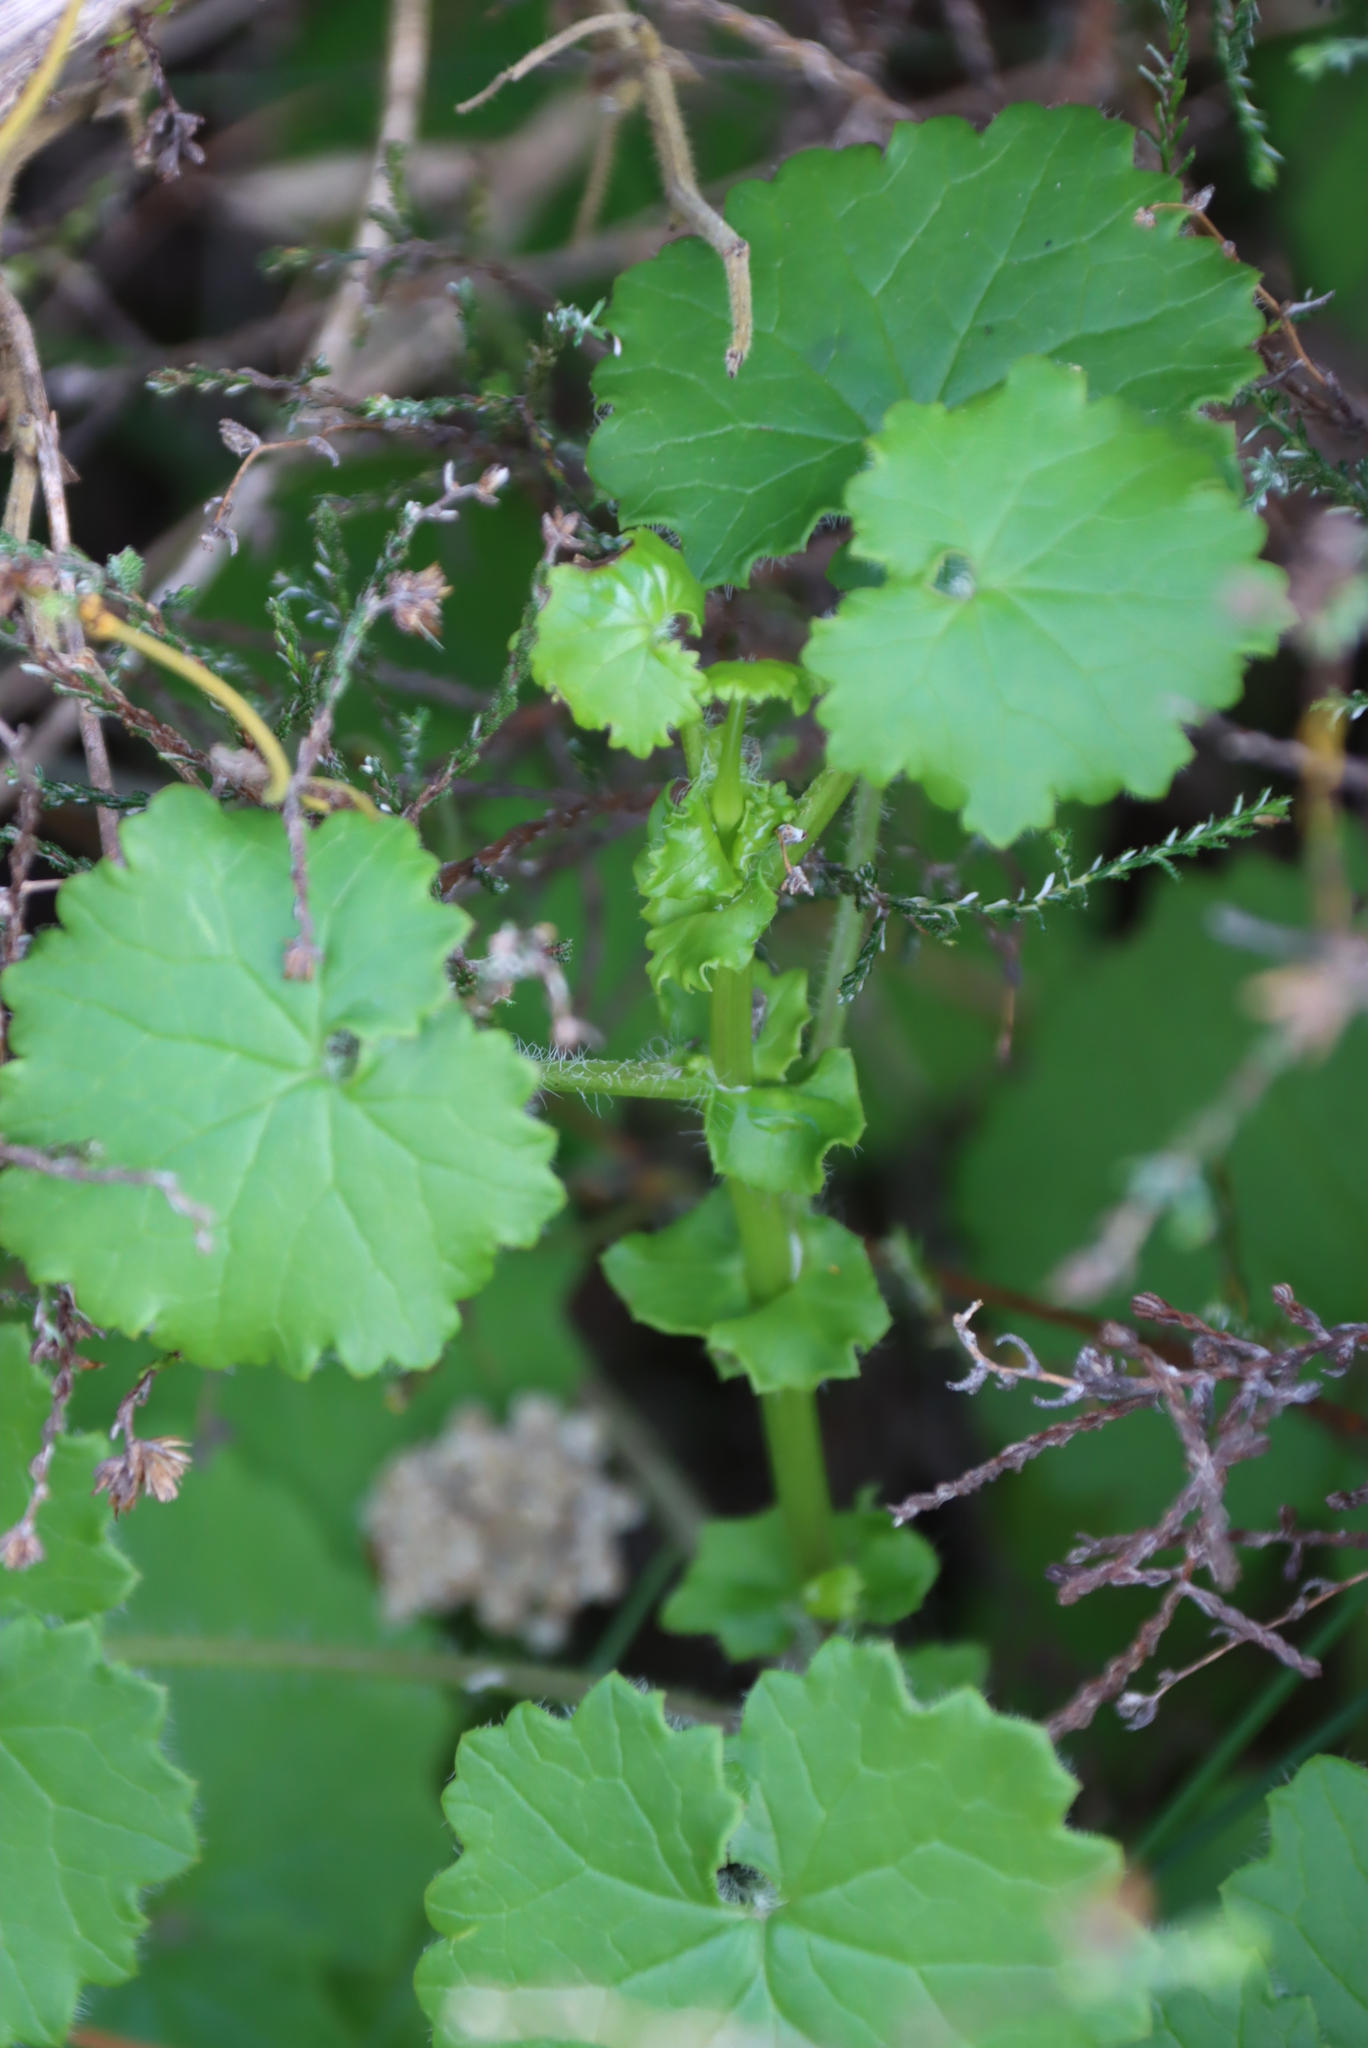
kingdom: Plantae
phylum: Tracheophyta
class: Magnoliopsida
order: Asterales
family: Asteraceae
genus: Cineraria
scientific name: Cineraria geifolia
